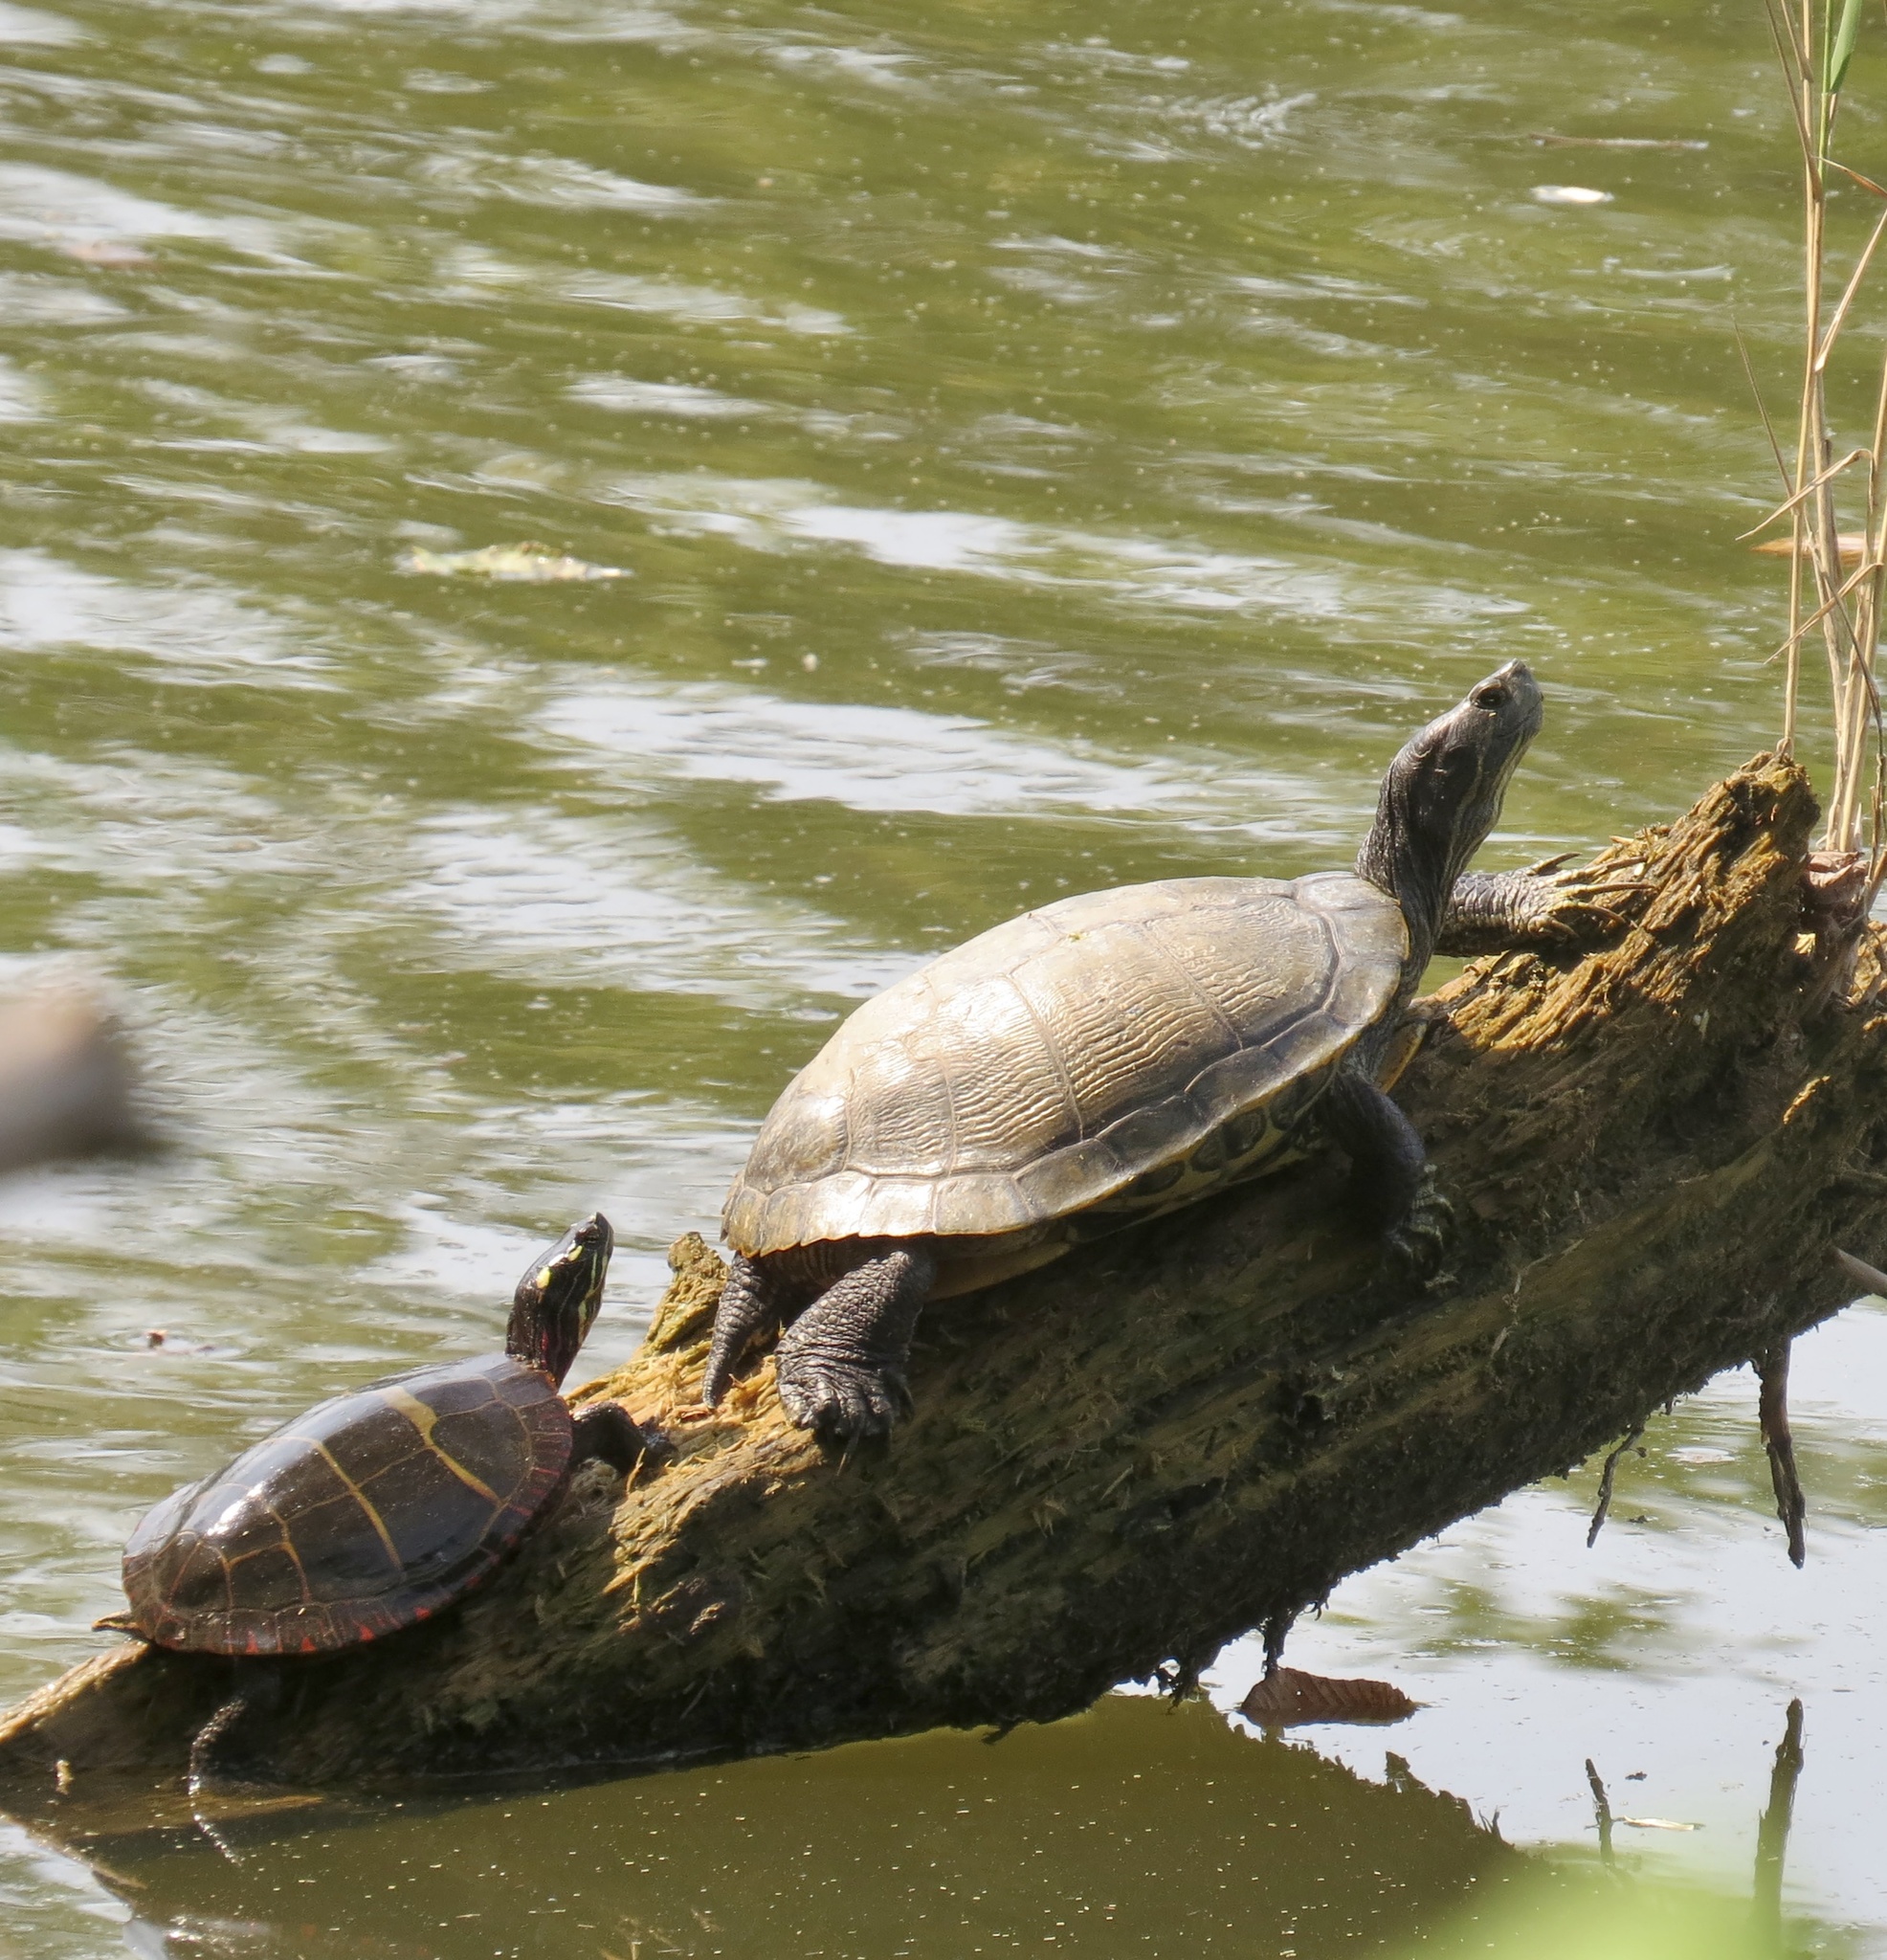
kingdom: Animalia
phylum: Chordata
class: Testudines
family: Emydidae
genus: Chrysemys
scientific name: Chrysemys picta
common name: Painted turtle
